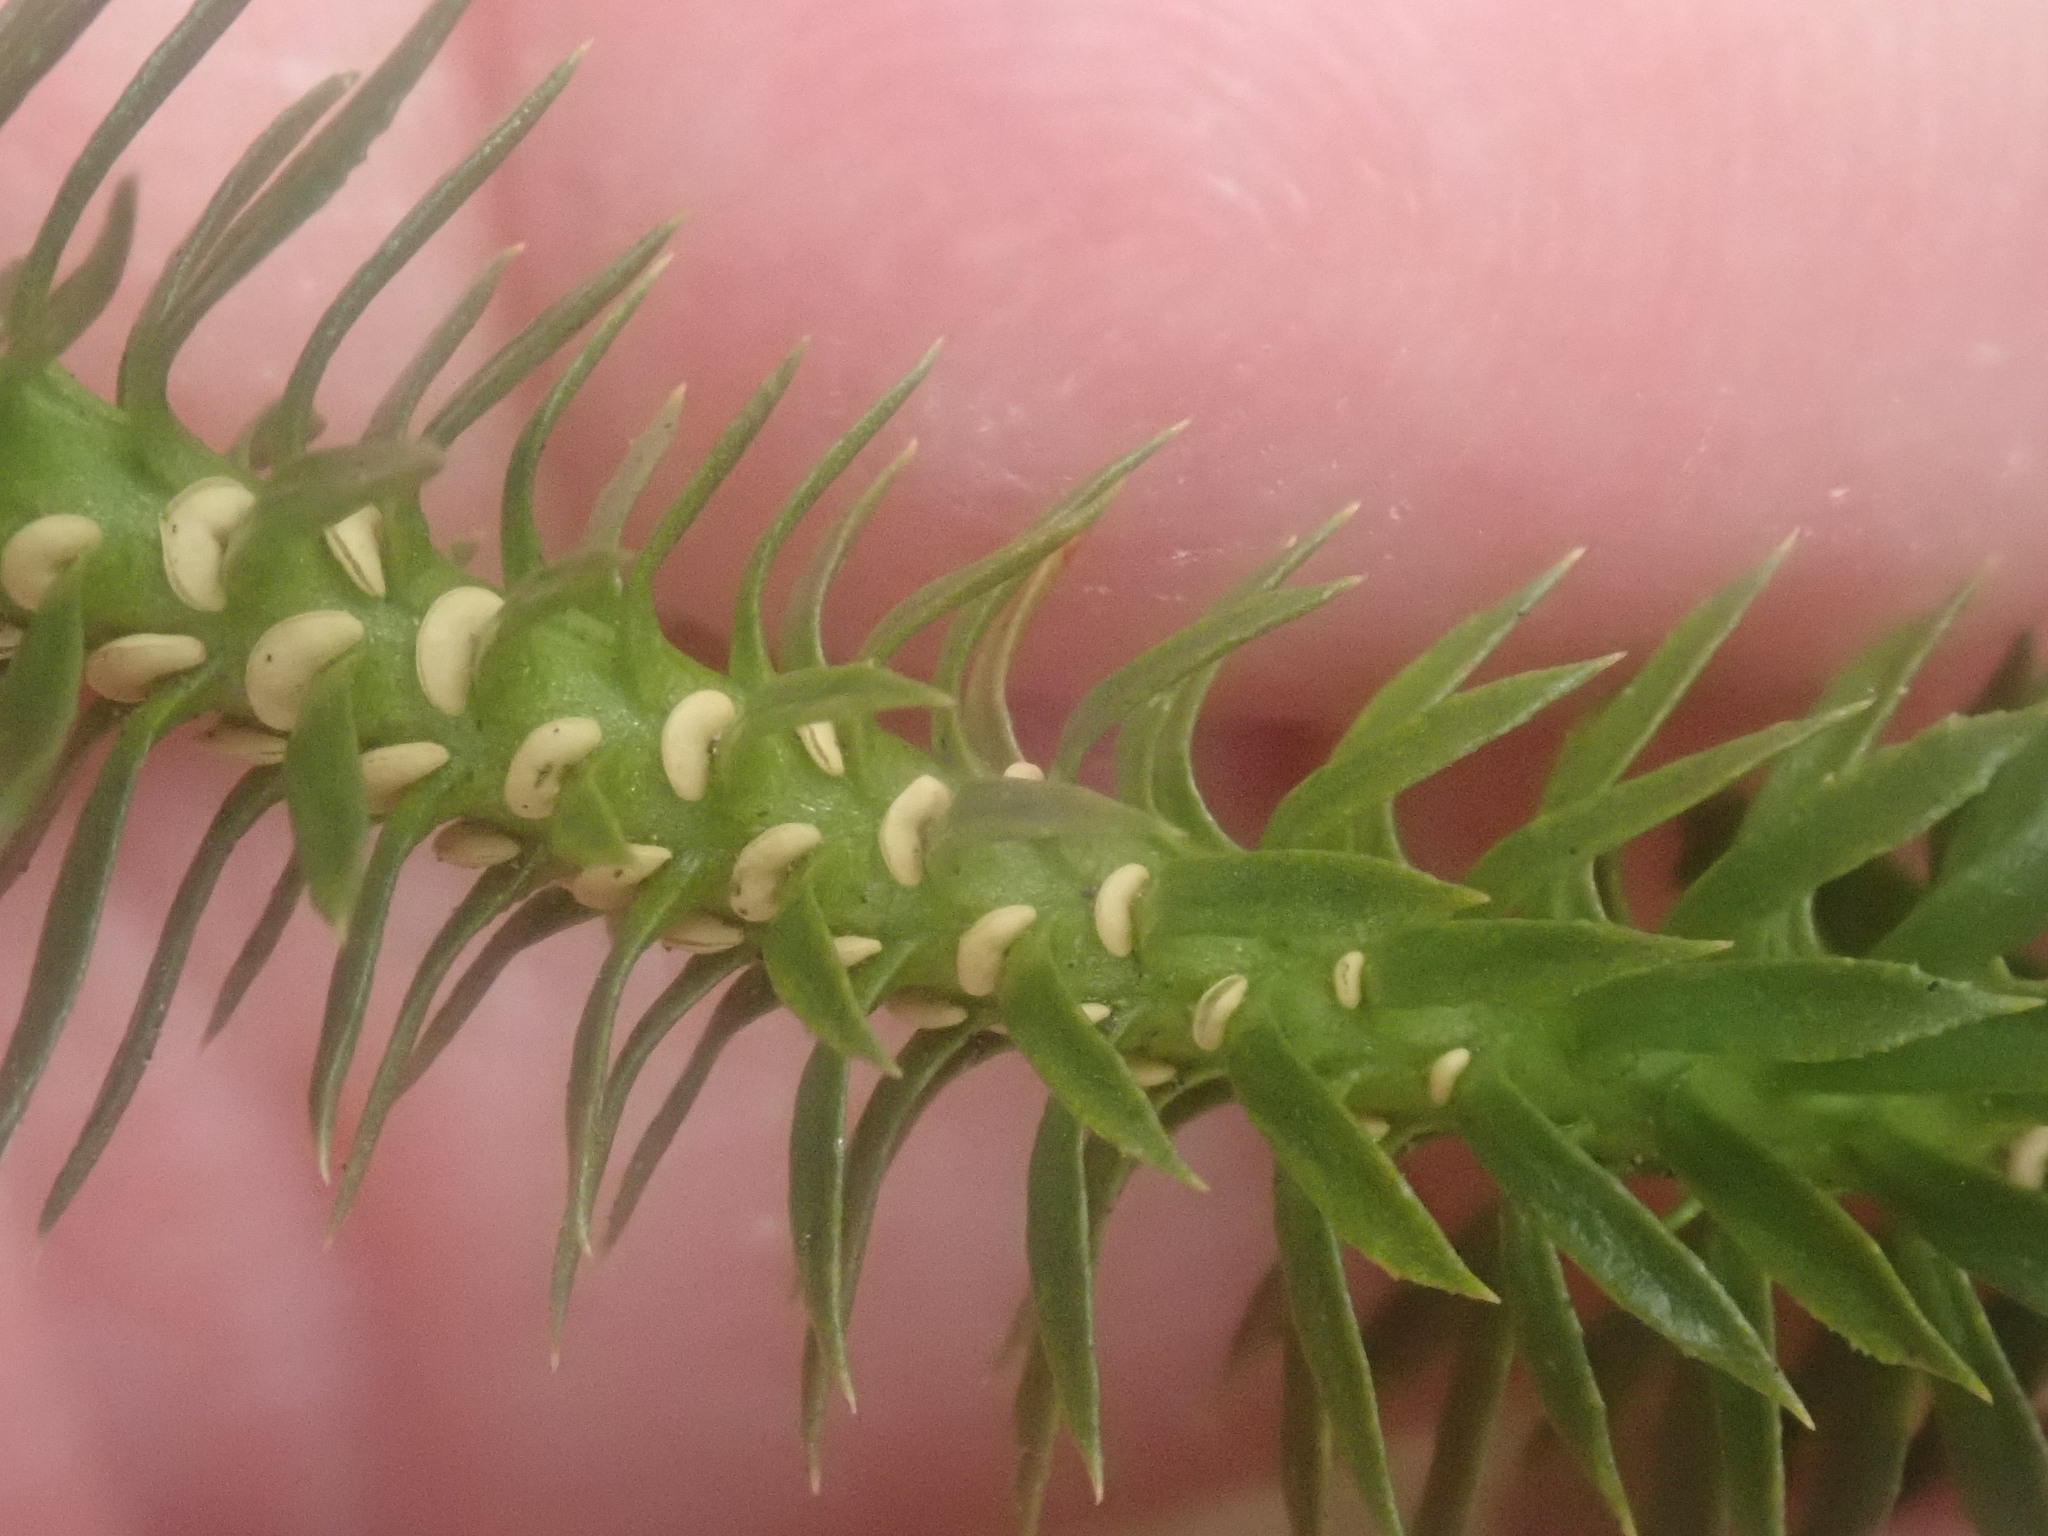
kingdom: Plantae
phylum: Tracheophyta
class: Lycopodiopsida
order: Lycopodiales
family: Lycopodiaceae
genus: Huperzia
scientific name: Huperzia lucidula
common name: Shining clubmoss
